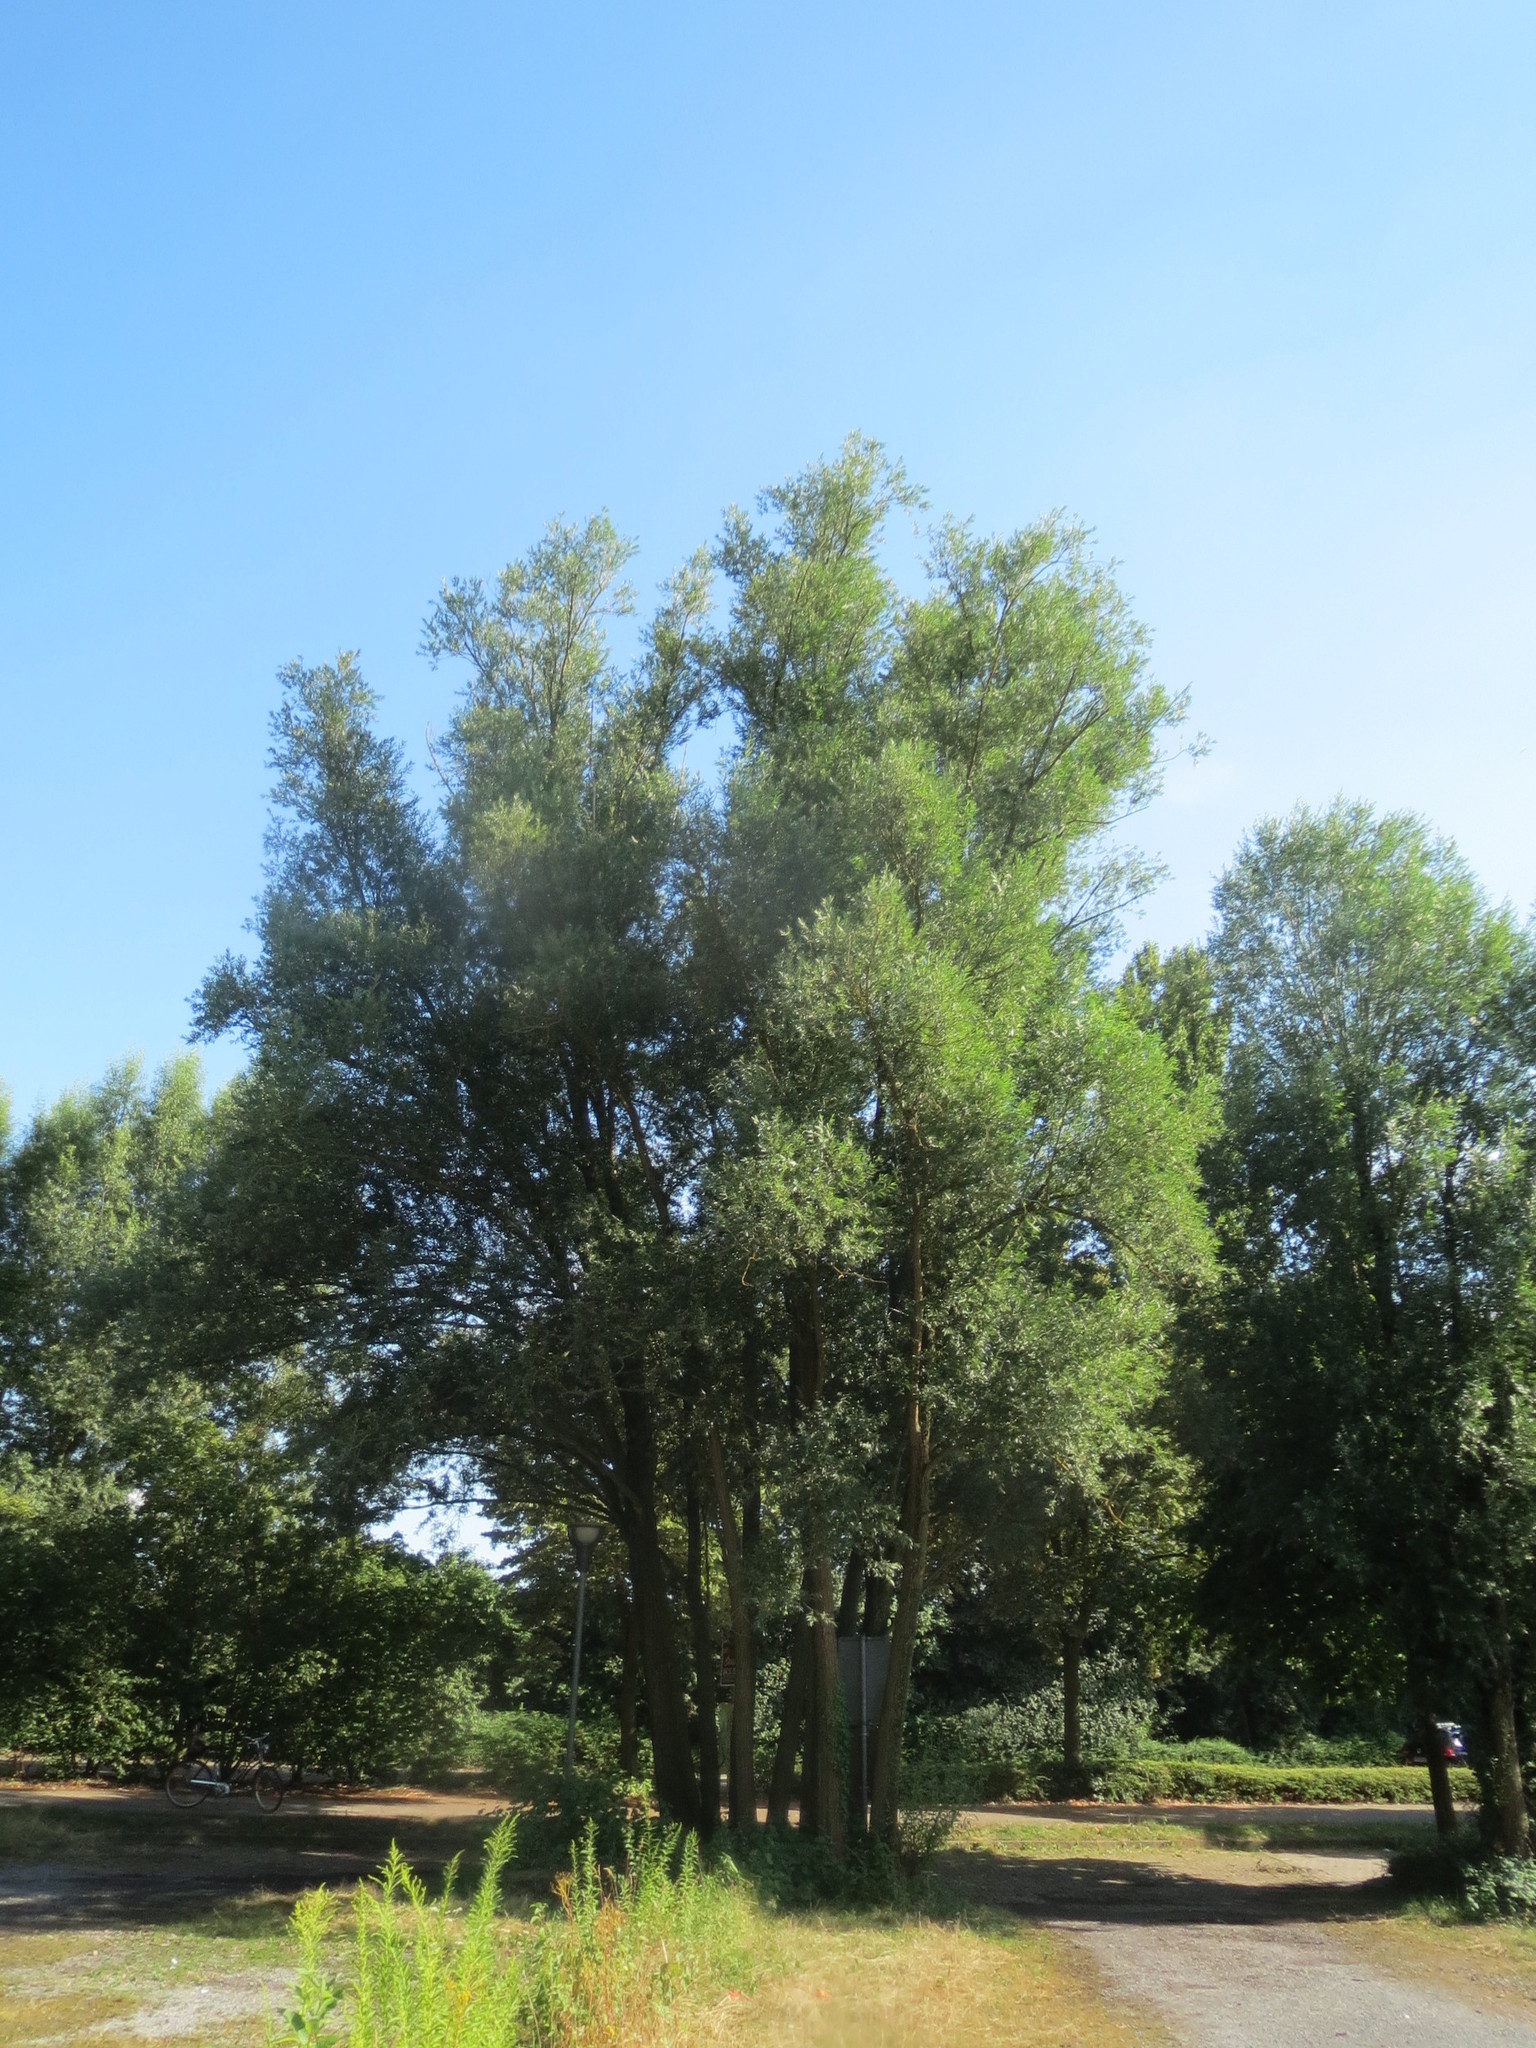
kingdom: Plantae
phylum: Tracheophyta
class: Magnoliopsida
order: Malpighiales
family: Salicaceae
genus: Salix
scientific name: Salix alba
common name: White willow
